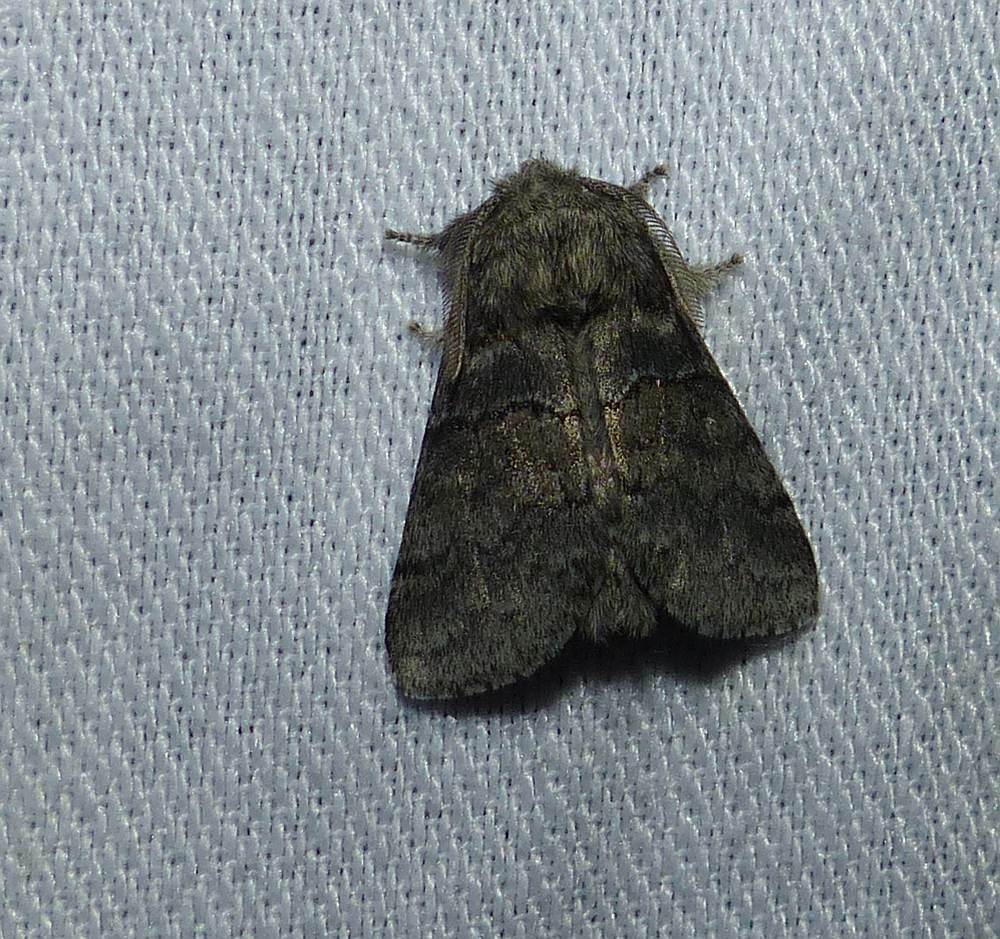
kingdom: Animalia
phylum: Arthropoda
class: Insecta
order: Lepidoptera
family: Notodontidae
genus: Gluphisia
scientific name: Gluphisia septentrionis
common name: Common gluphisia
